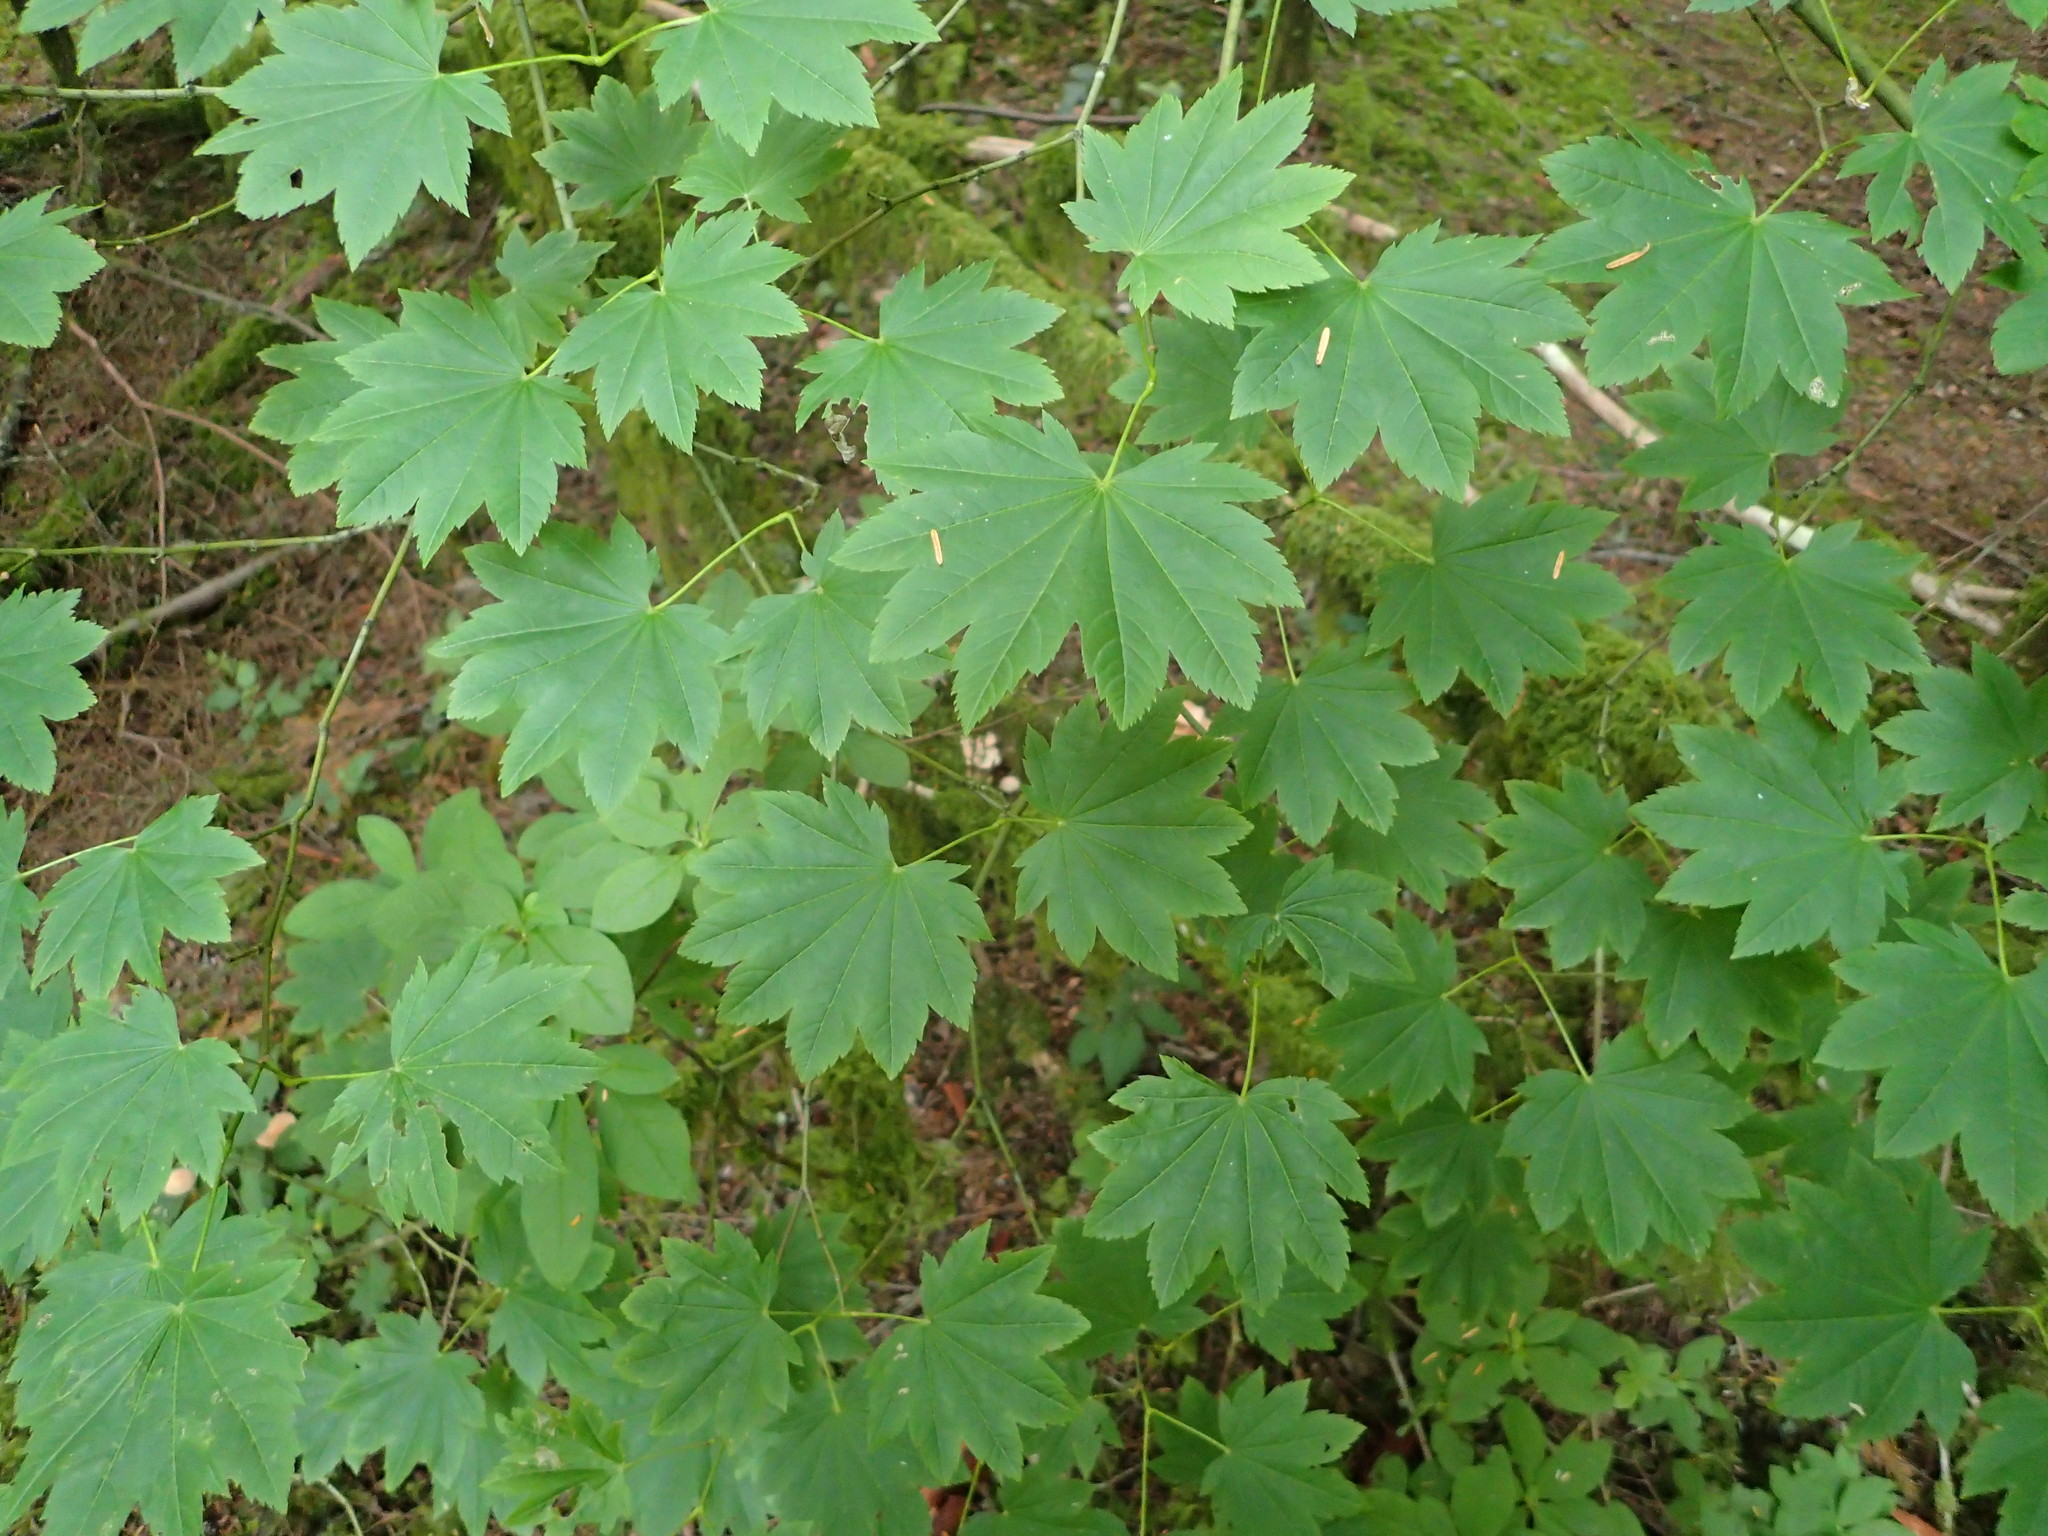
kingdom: Plantae
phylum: Tracheophyta
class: Magnoliopsida
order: Sapindales
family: Sapindaceae
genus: Acer
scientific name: Acer circinatum
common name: Vine maple
